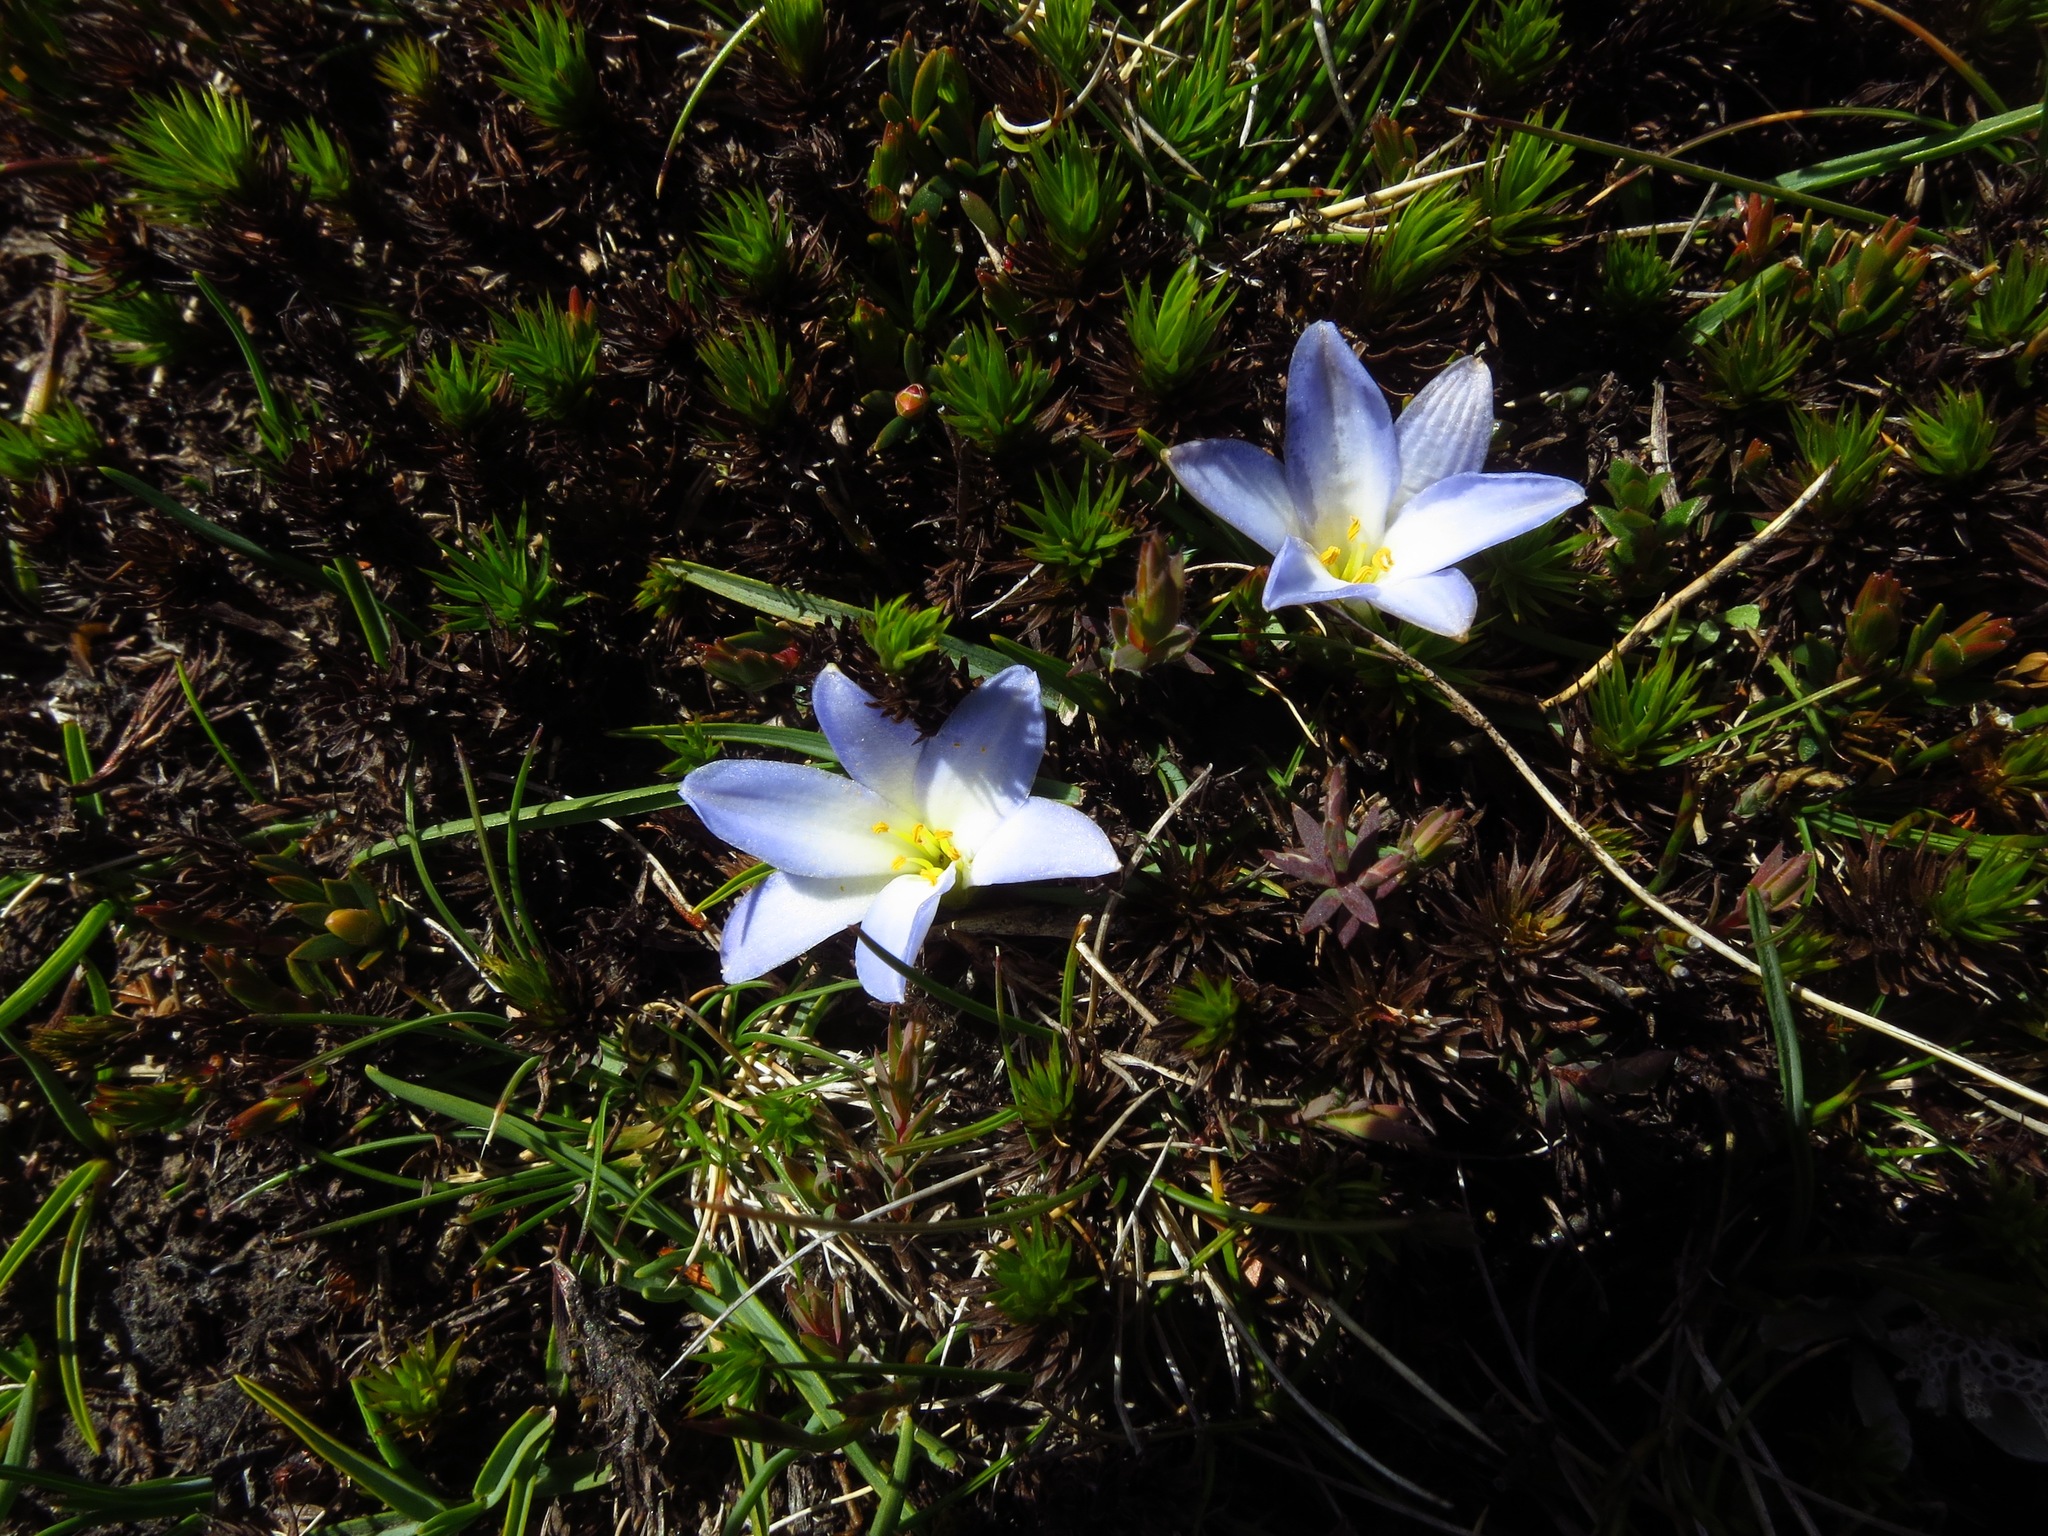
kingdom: Plantae
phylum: Tracheophyta
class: Liliopsida
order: Asparagales
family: Asphodelaceae
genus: Herpolirion
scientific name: Herpolirion novae-zelandiae
